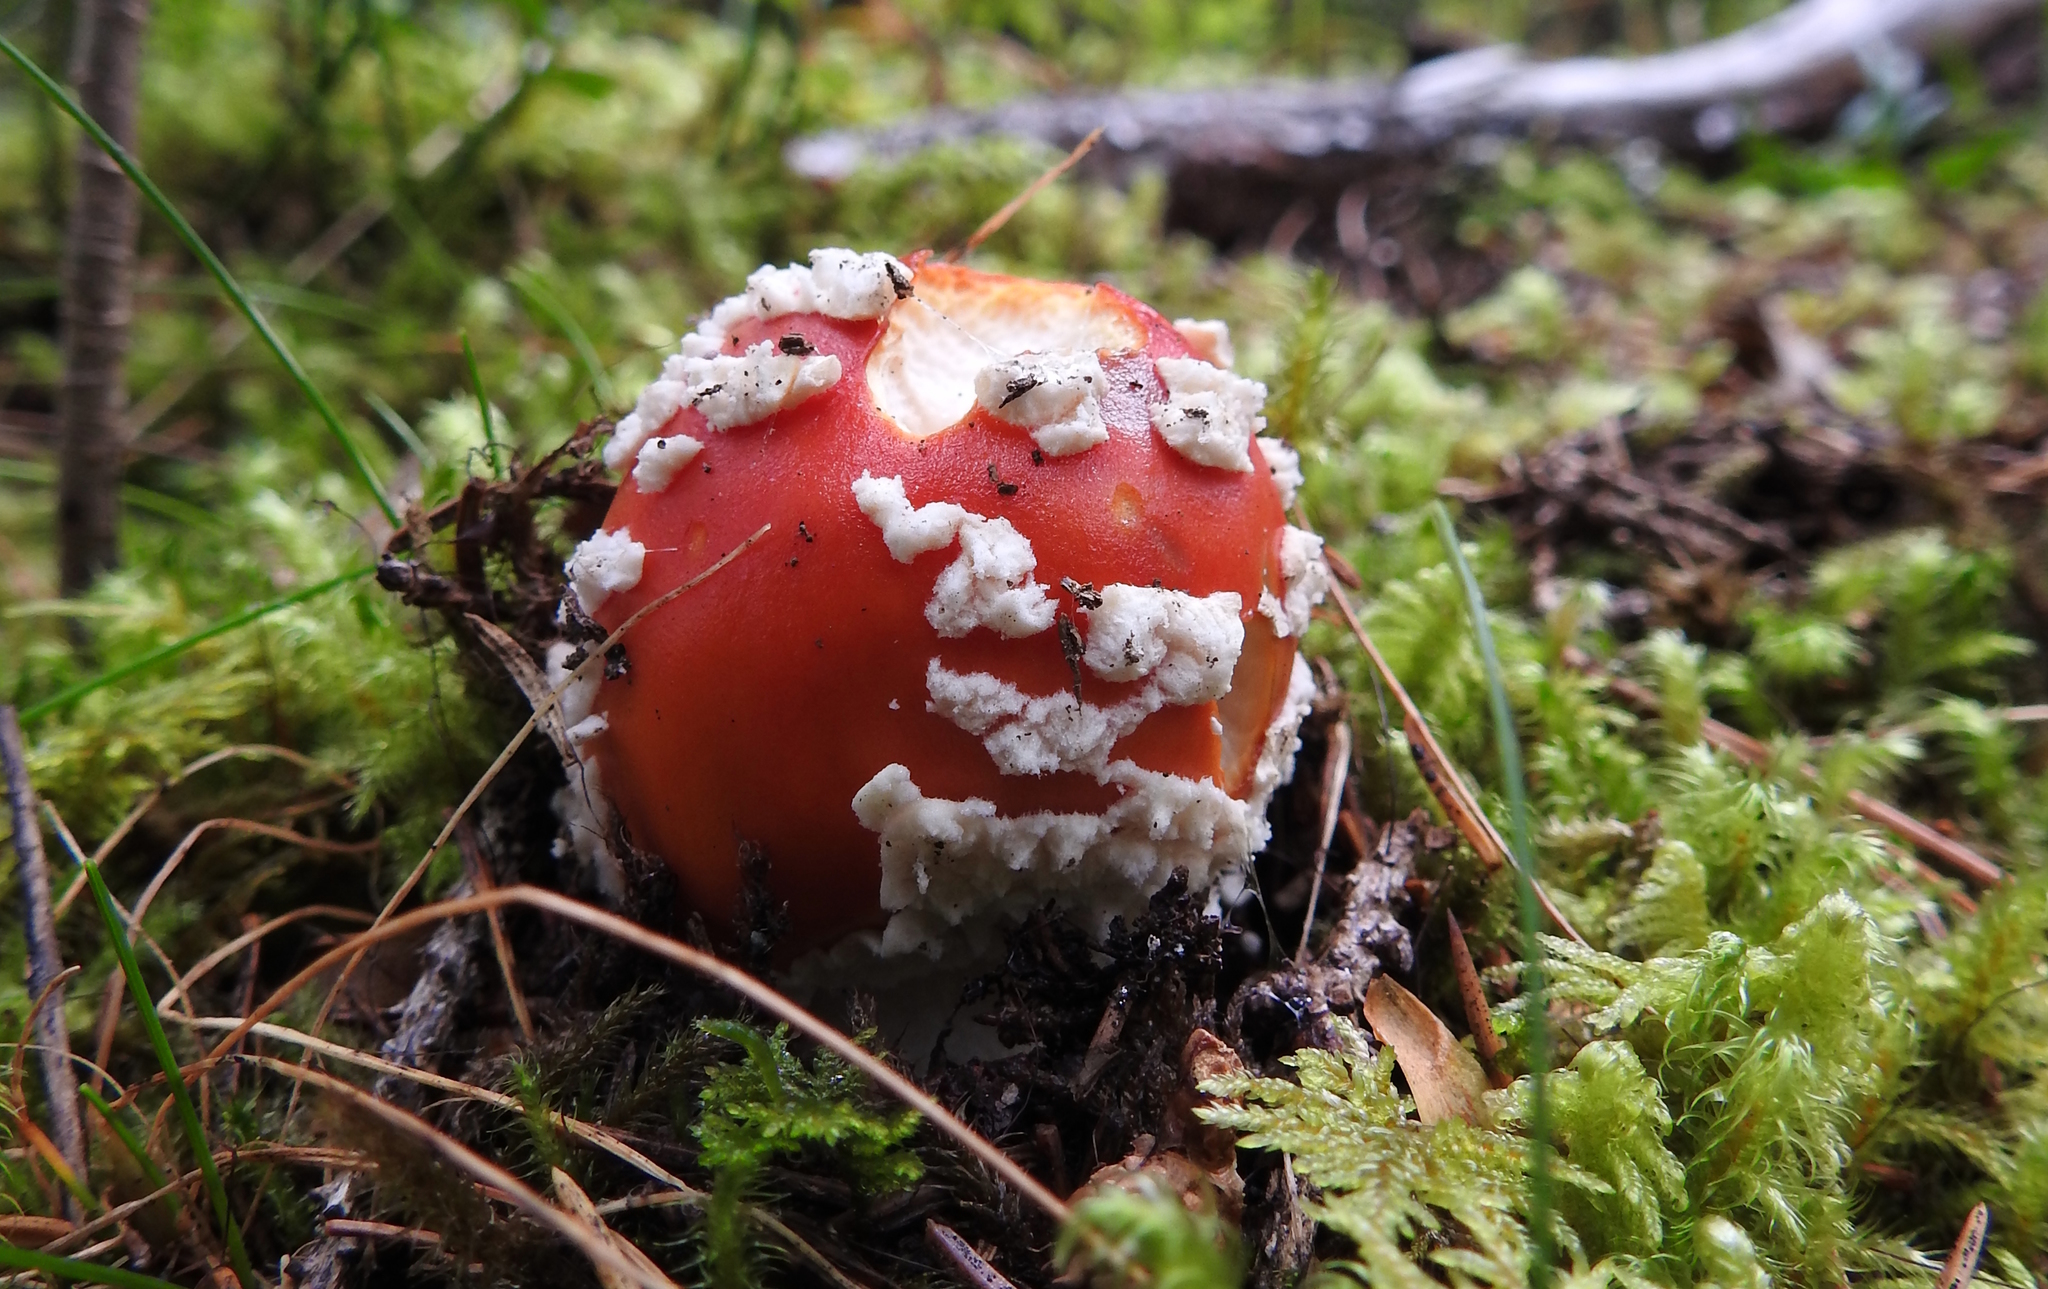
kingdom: Fungi
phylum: Basidiomycota
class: Agaricomycetes
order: Agaricales
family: Amanitaceae
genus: Amanita
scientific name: Amanita muscaria
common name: Fly agaric
